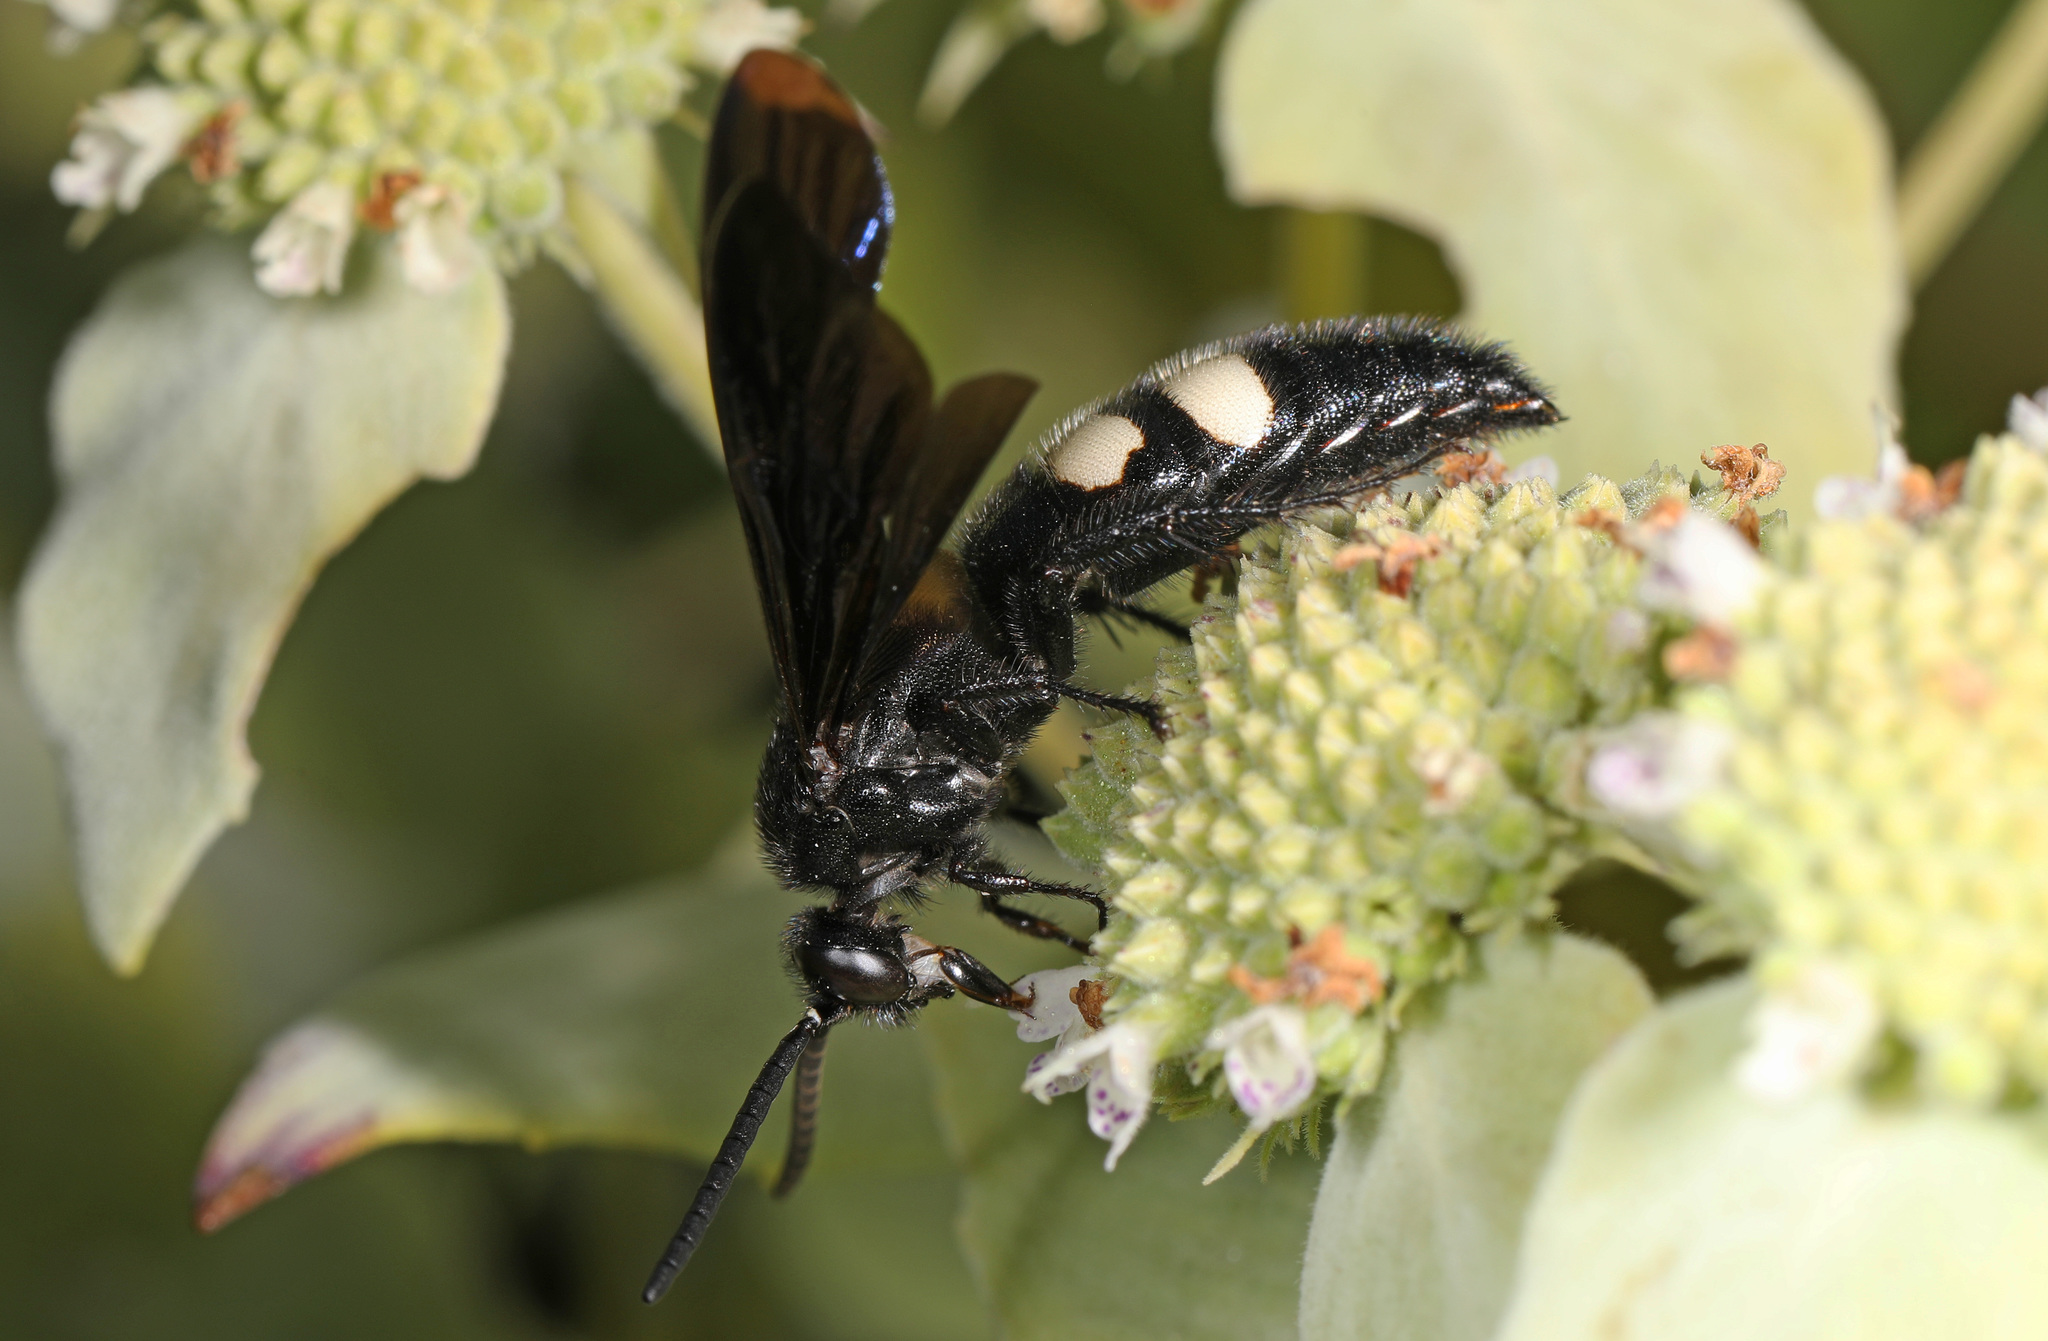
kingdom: Animalia
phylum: Arthropoda
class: Insecta
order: Hymenoptera
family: Scoliidae
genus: Scolia
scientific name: Scolia bicincta
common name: Double-banded scoliid wasp
